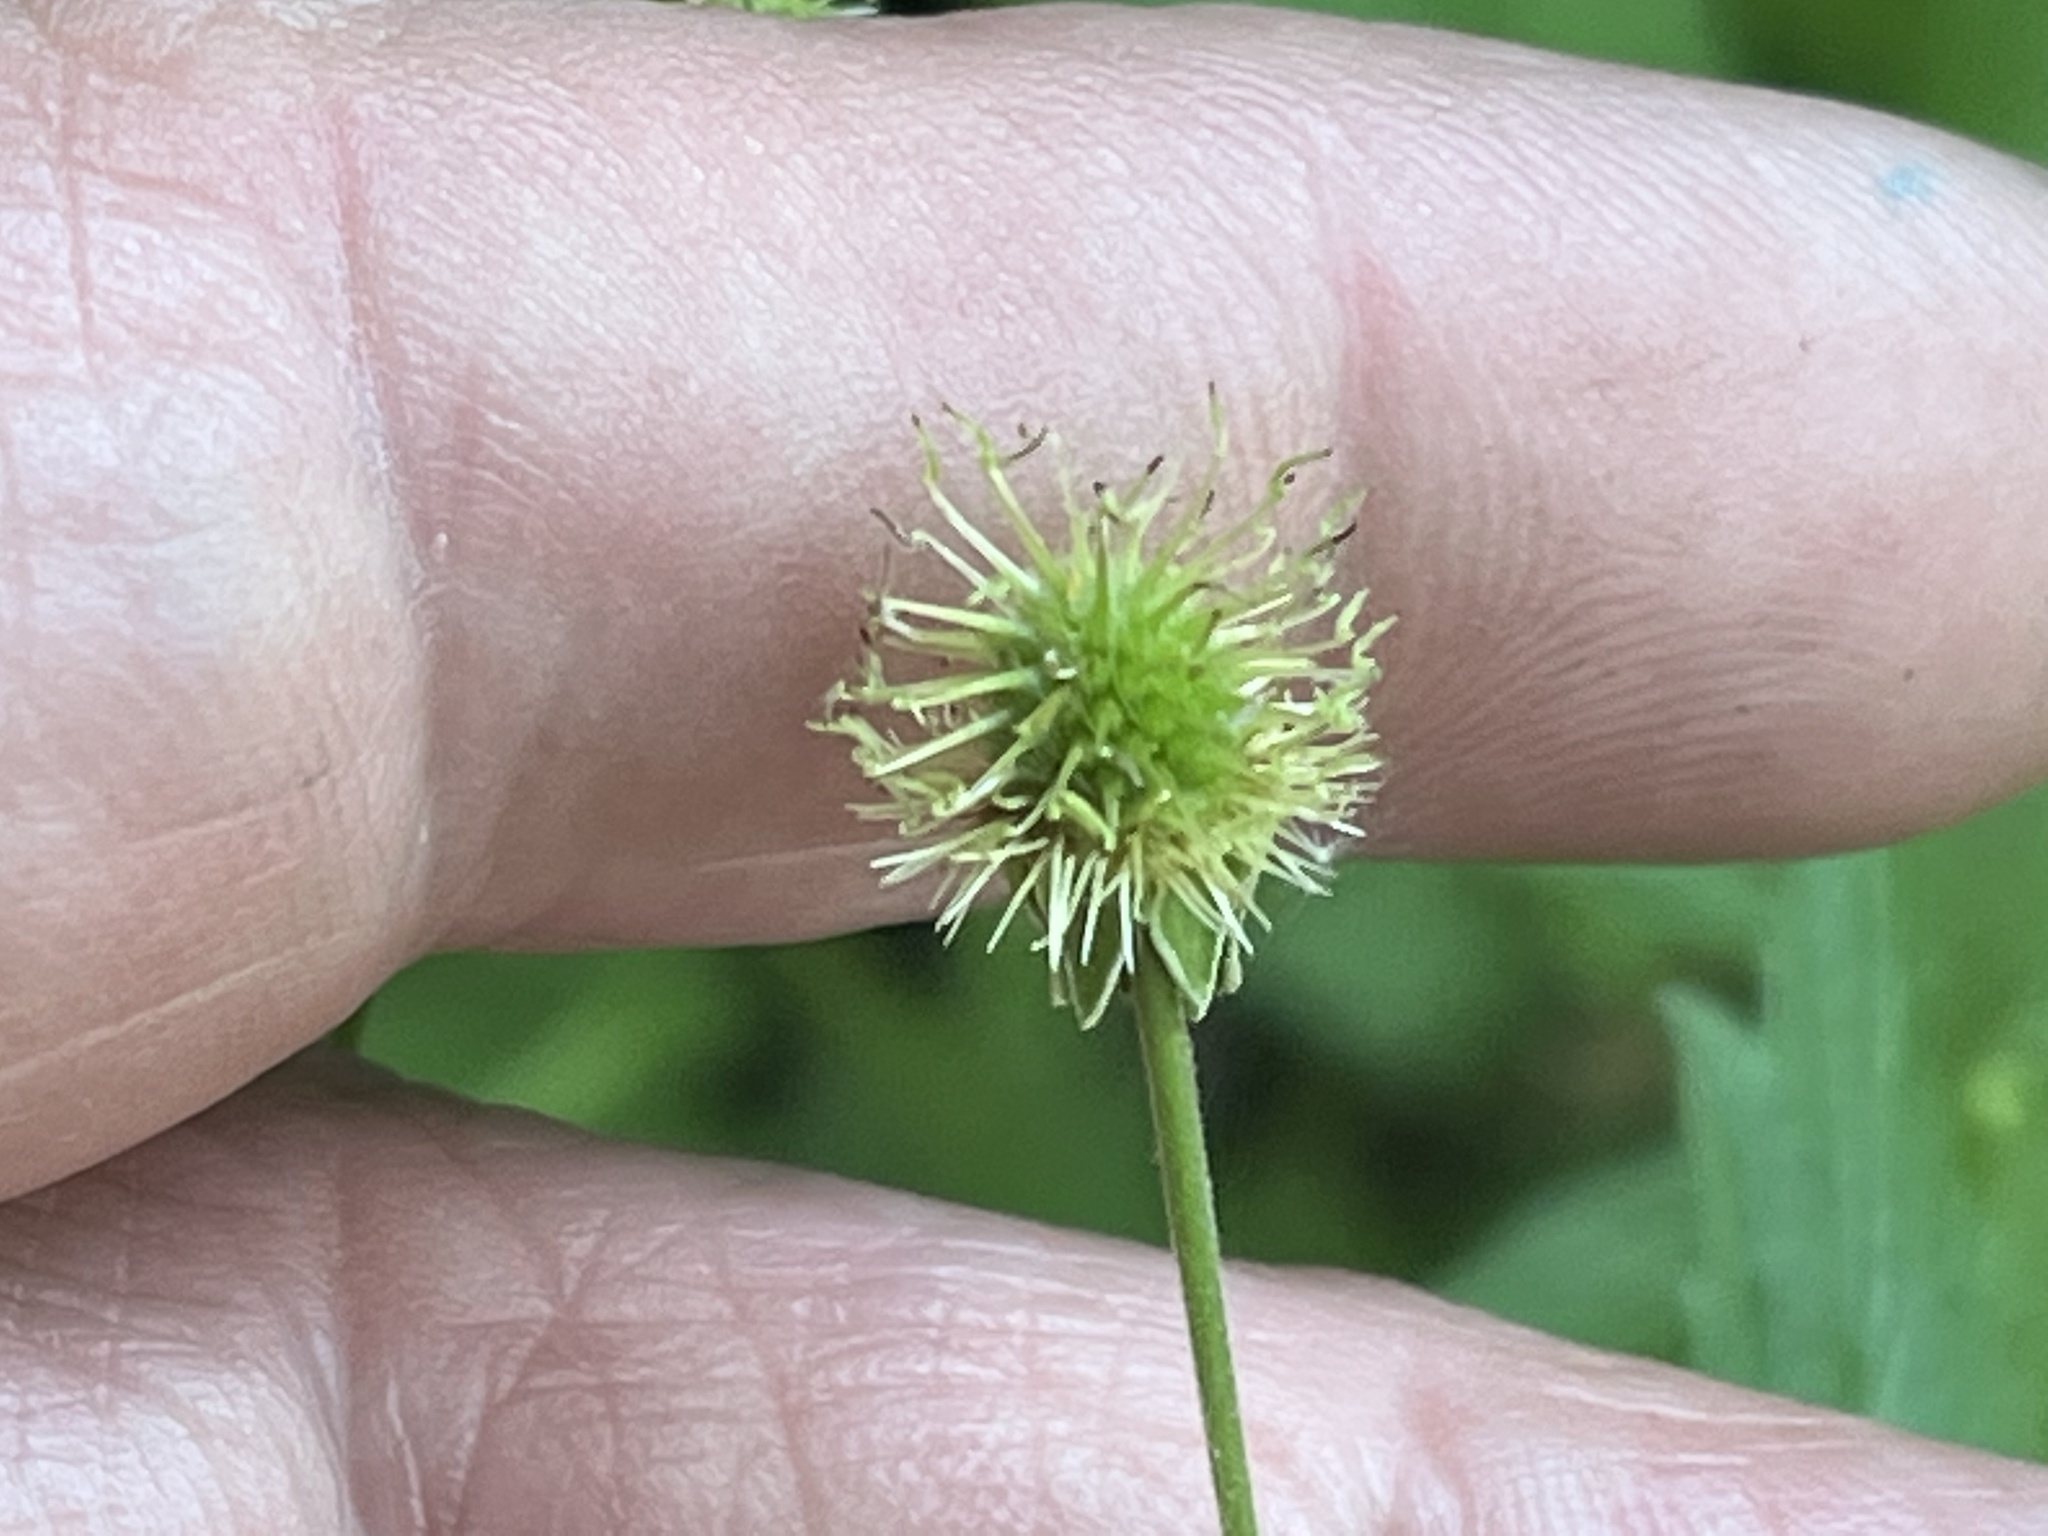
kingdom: Plantae
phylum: Tracheophyta
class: Magnoliopsida
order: Rosales
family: Rosaceae
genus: Geum
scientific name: Geum canadense
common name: White avens
